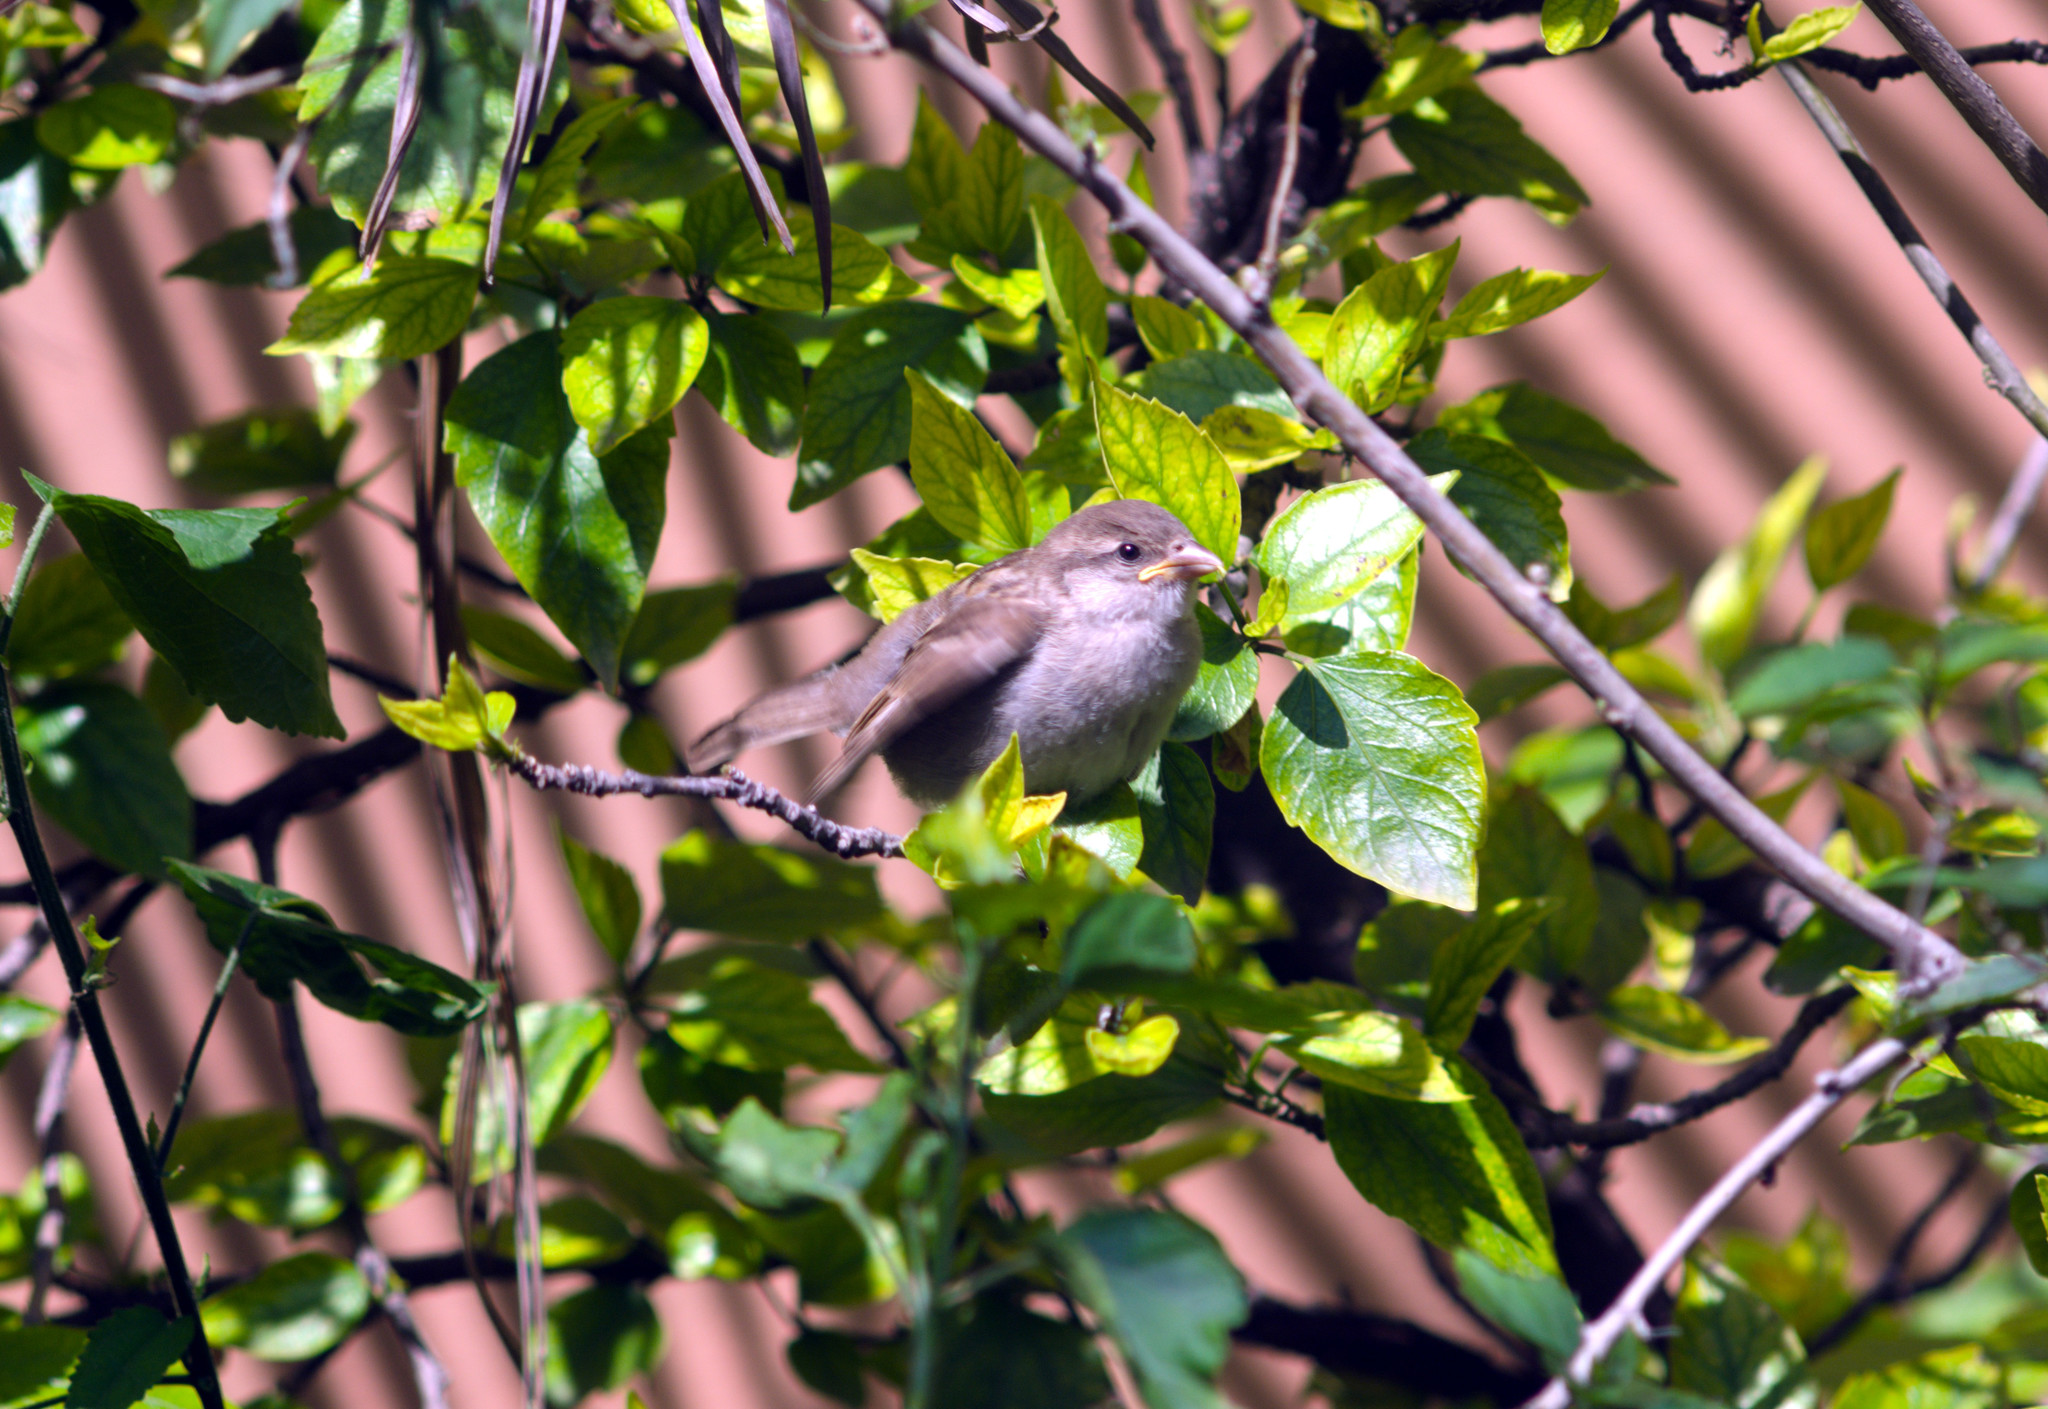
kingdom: Animalia
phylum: Chordata
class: Aves
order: Passeriformes
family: Passeridae
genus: Passer
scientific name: Passer domesticus
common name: House sparrow
